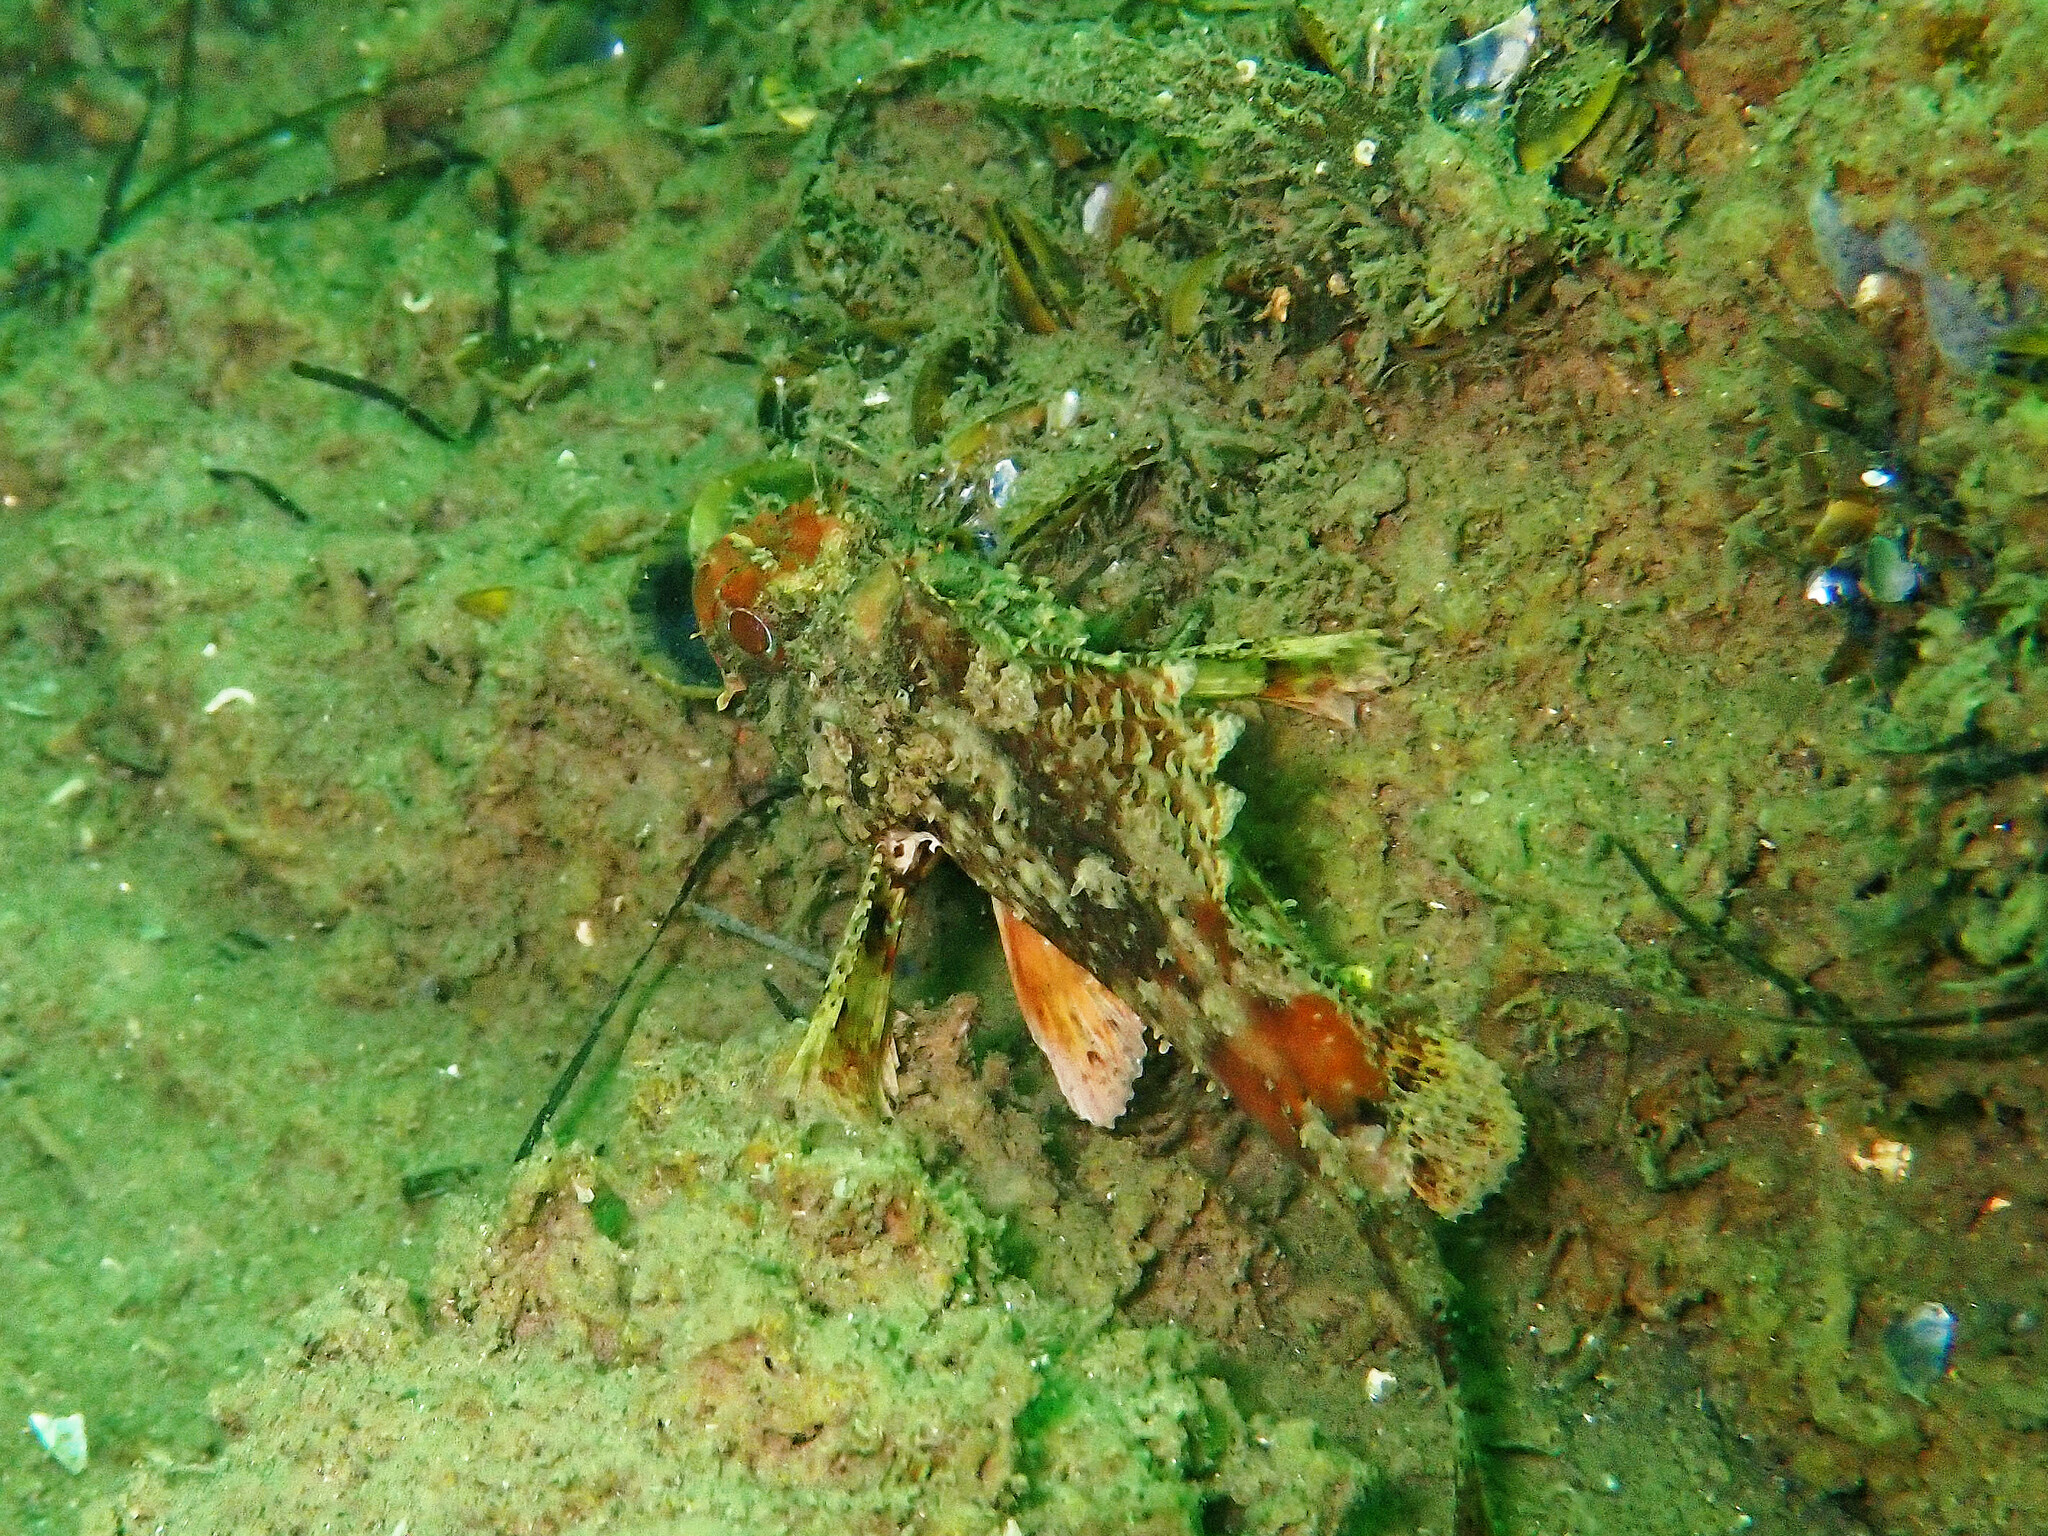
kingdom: Animalia
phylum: Chordata
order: Scorpaeniformes
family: Scorpaenidae
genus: Scorpaena
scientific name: Scorpaena notata
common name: Small red scorpionfish
